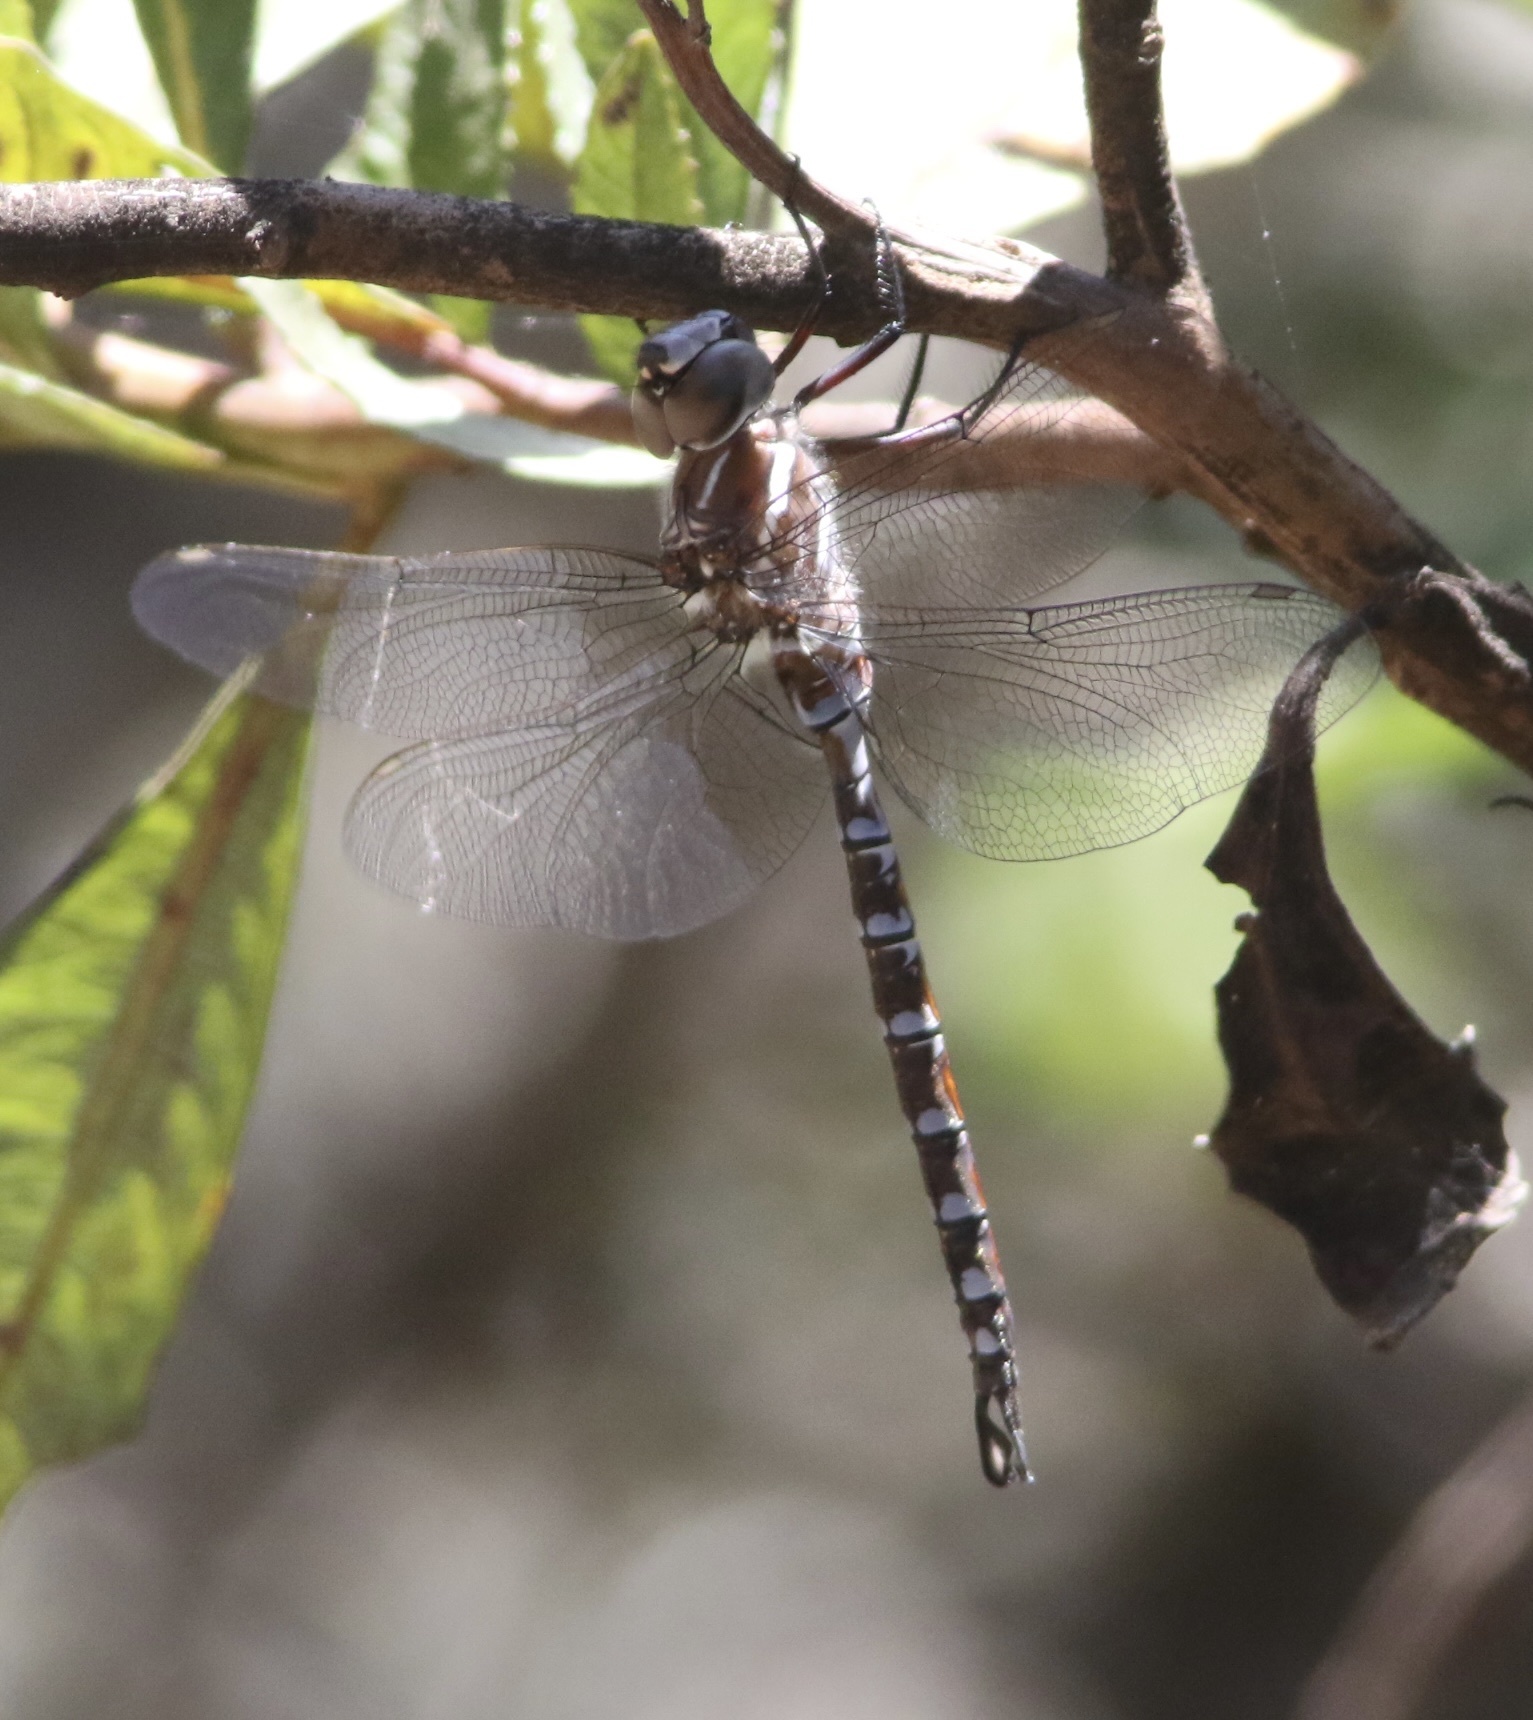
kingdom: Animalia
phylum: Arthropoda
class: Insecta
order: Odonata
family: Aeshnidae
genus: Aeshna
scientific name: Aeshna walkeri
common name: Walker's darner
